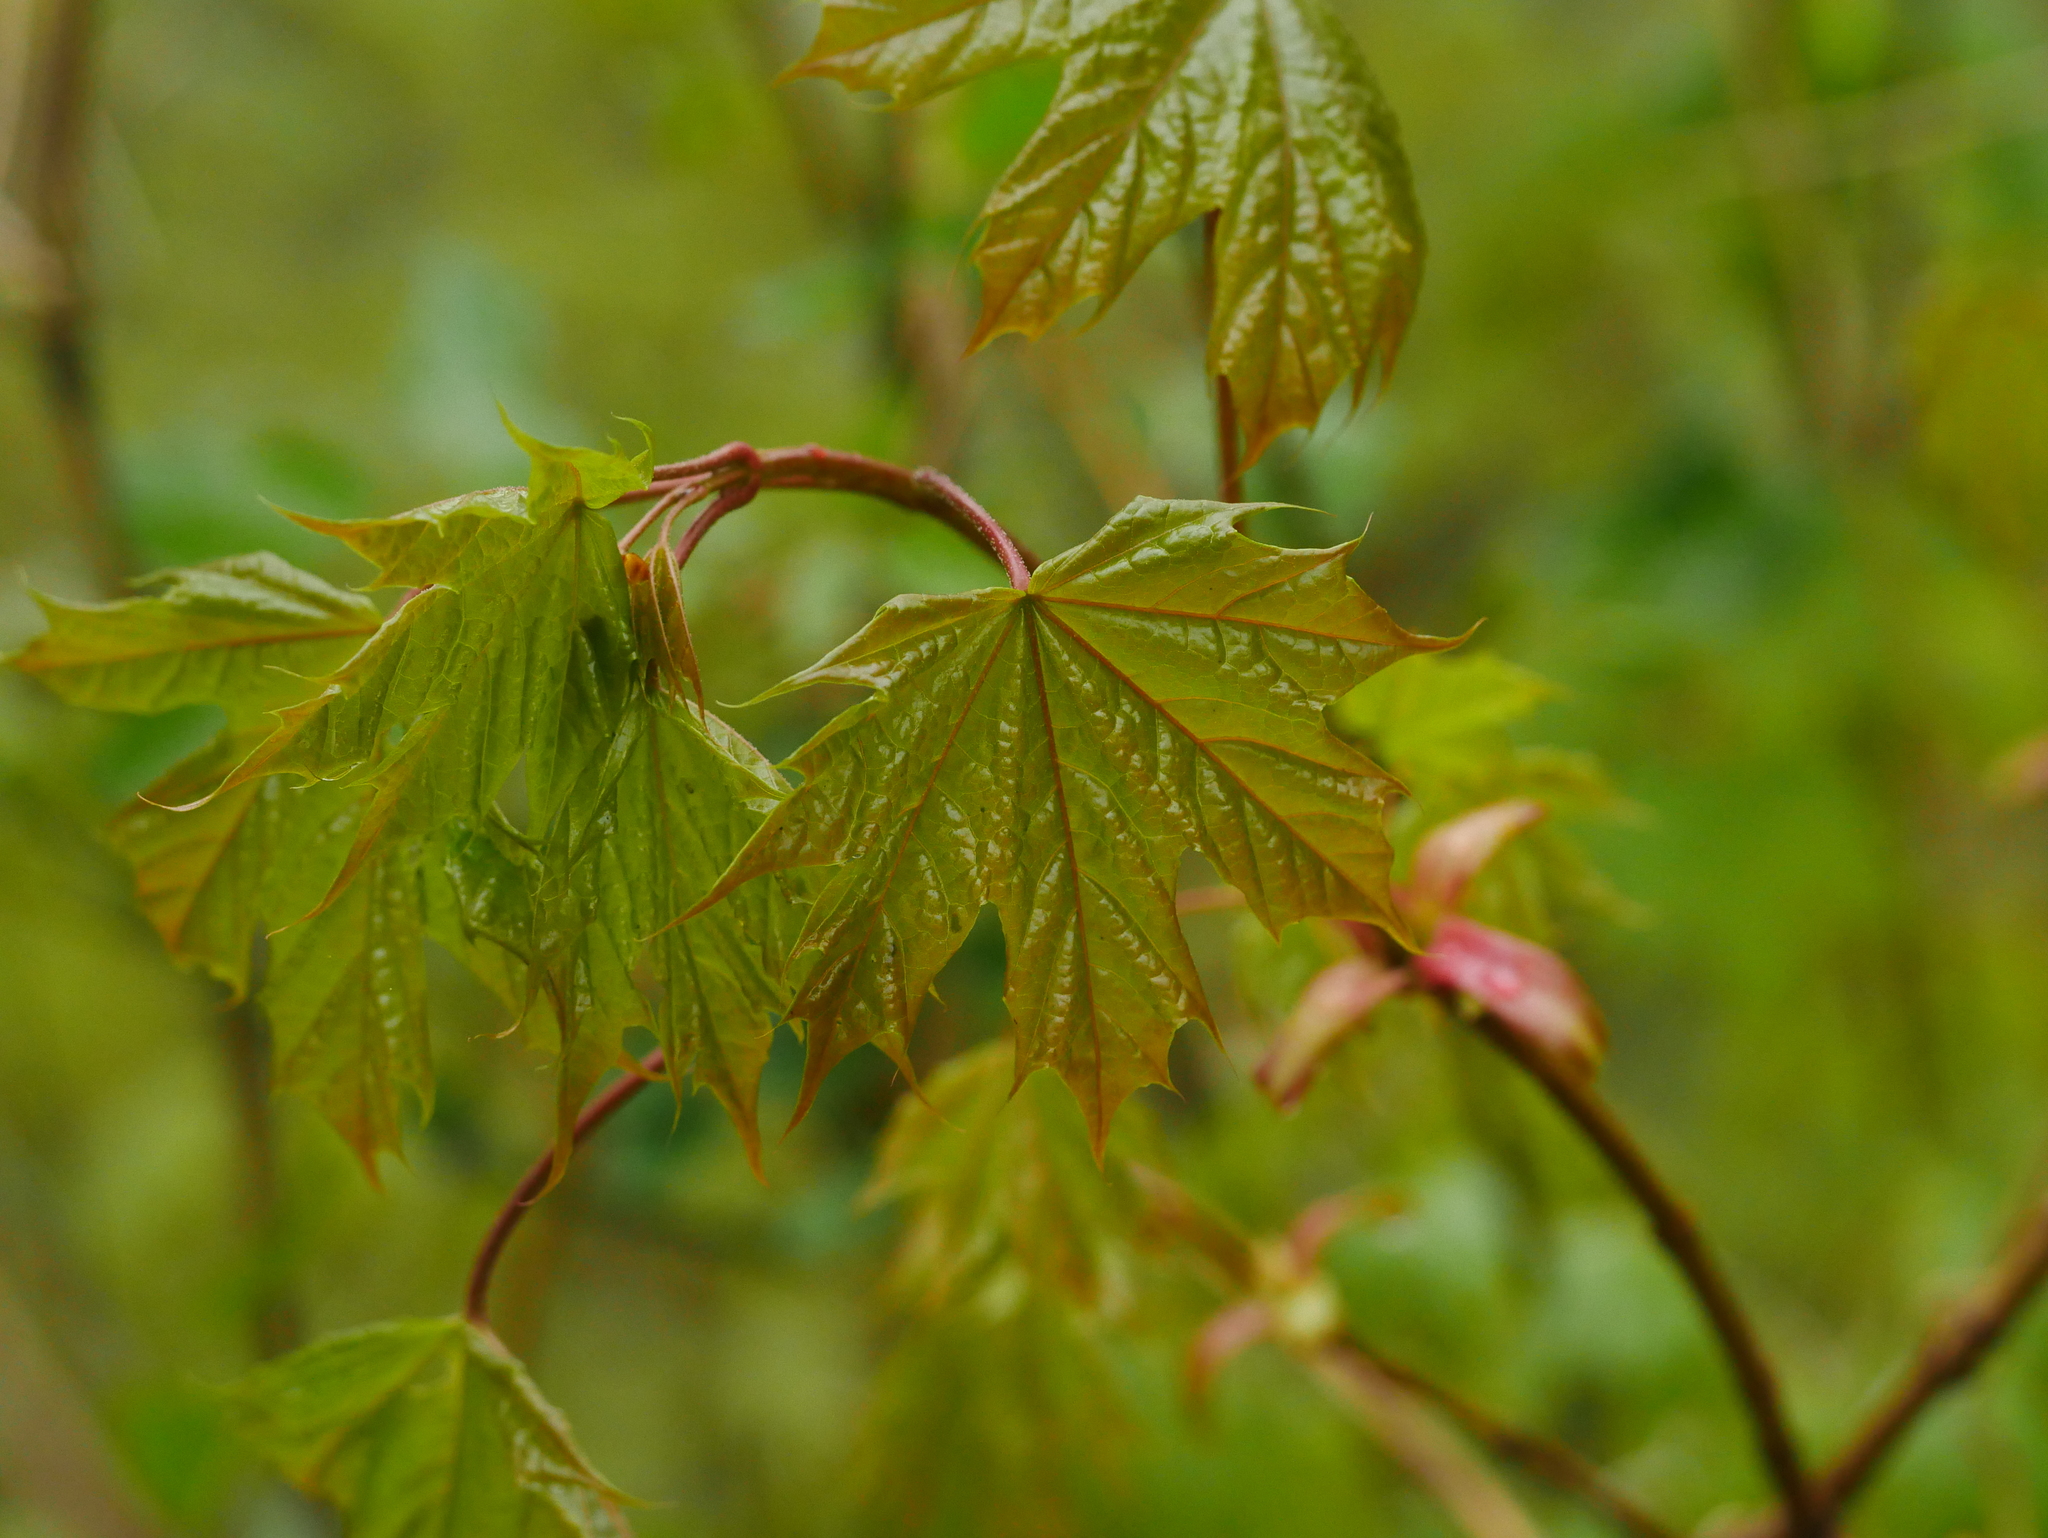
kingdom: Plantae
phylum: Tracheophyta
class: Magnoliopsida
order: Sapindales
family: Sapindaceae
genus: Acer
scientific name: Acer platanoides
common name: Norway maple
